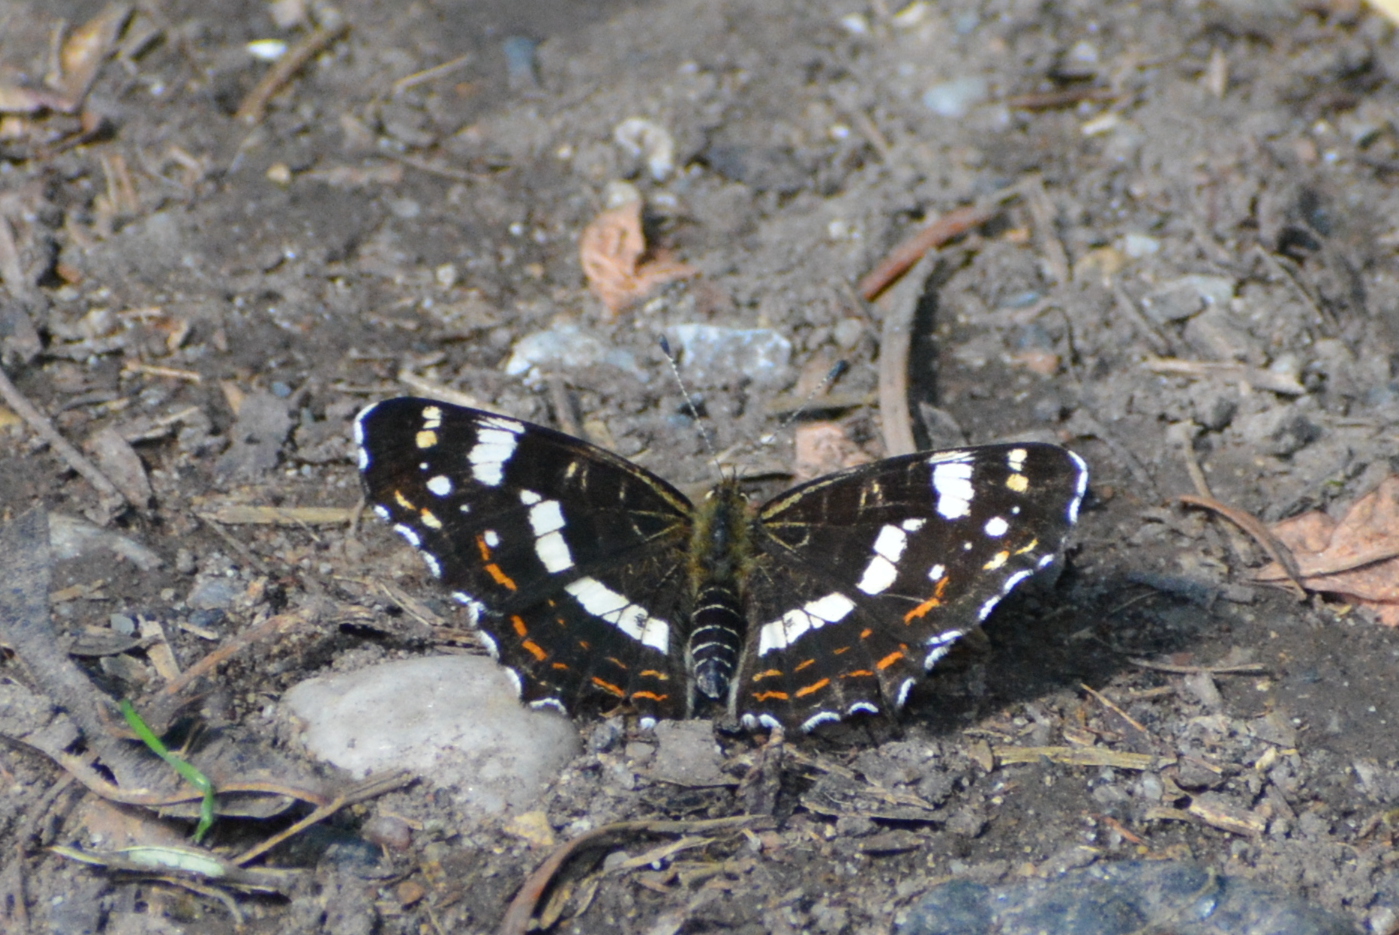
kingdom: Animalia
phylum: Arthropoda
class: Insecta
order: Lepidoptera
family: Nymphalidae
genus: Araschnia
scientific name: Araschnia levana
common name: Map butterfly
